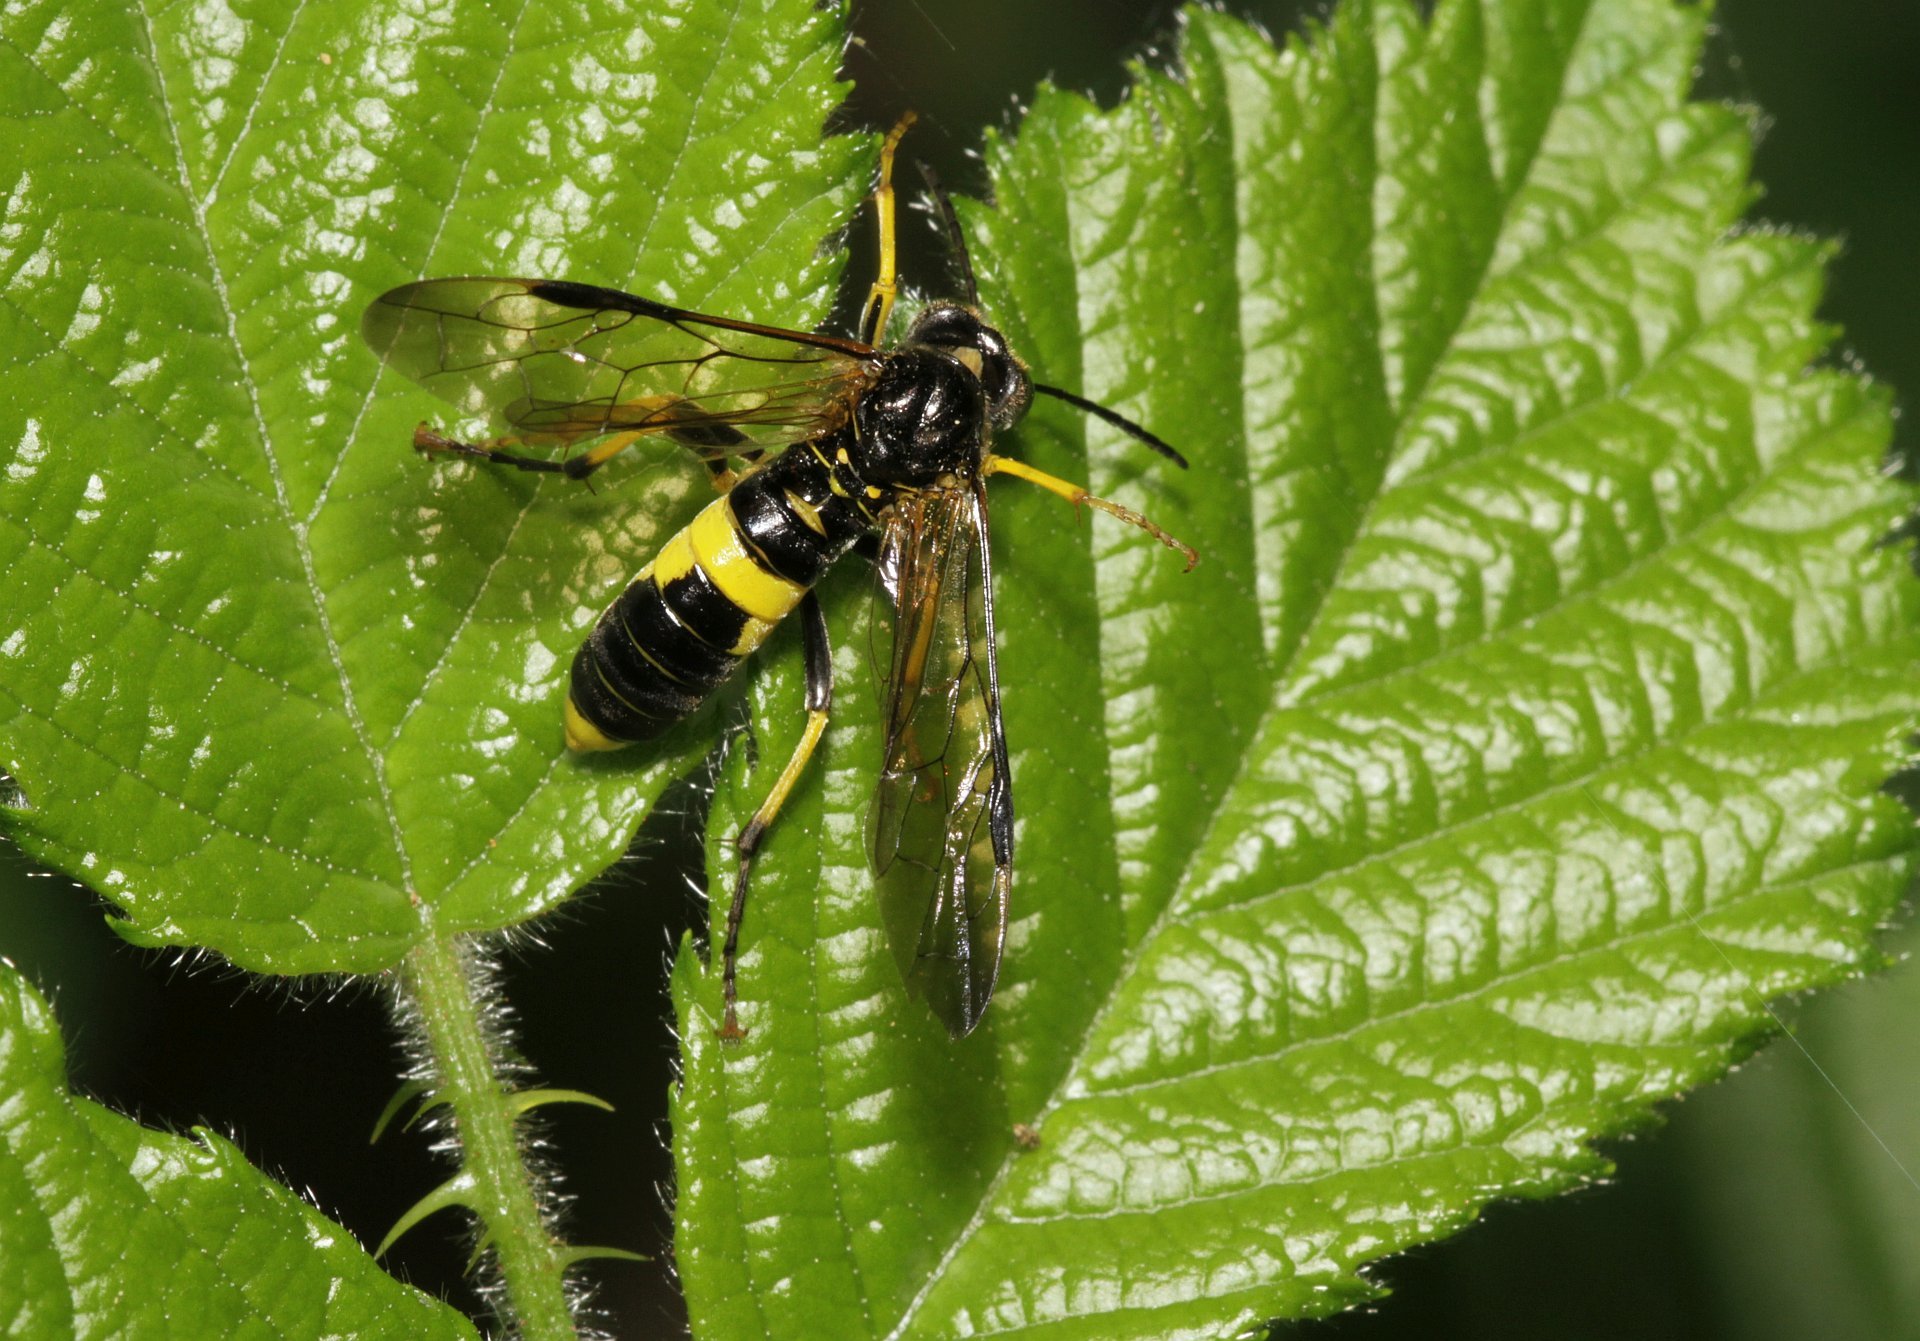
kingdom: Animalia
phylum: Arthropoda
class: Insecta
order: Hymenoptera
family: Tenthredinidae
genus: Tenthredo
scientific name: Tenthredo temula
